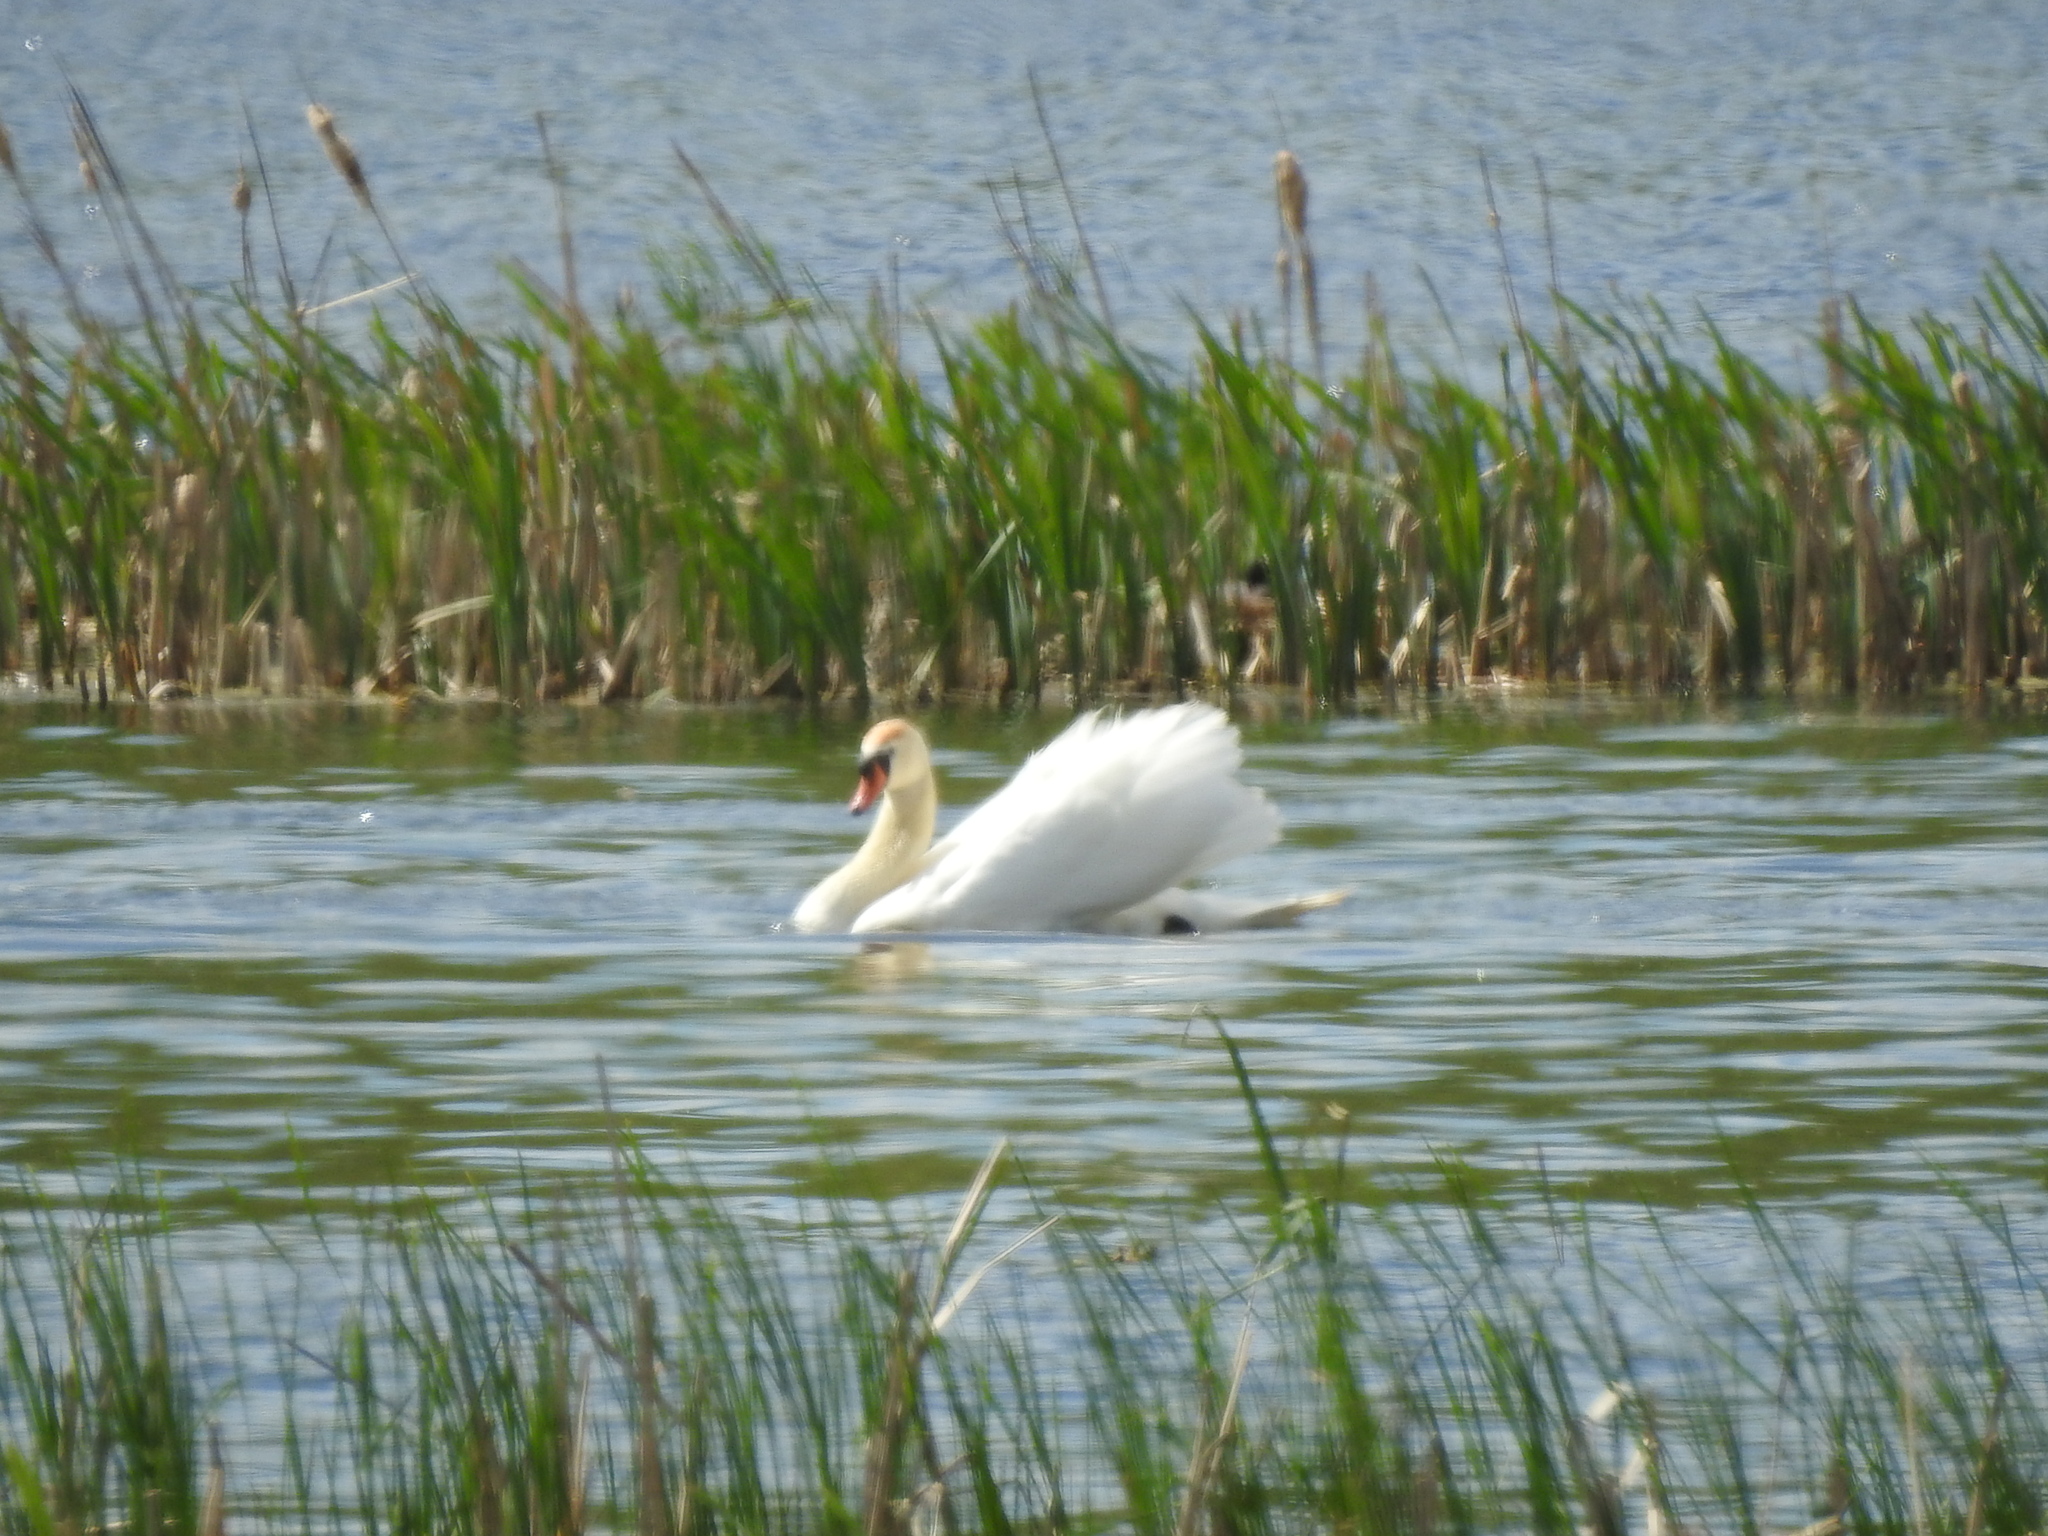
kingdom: Animalia
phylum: Chordata
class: Aves
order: Anseriformes
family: Anatidae
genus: Cygnus
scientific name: Cygnus olor
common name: Mute swan
